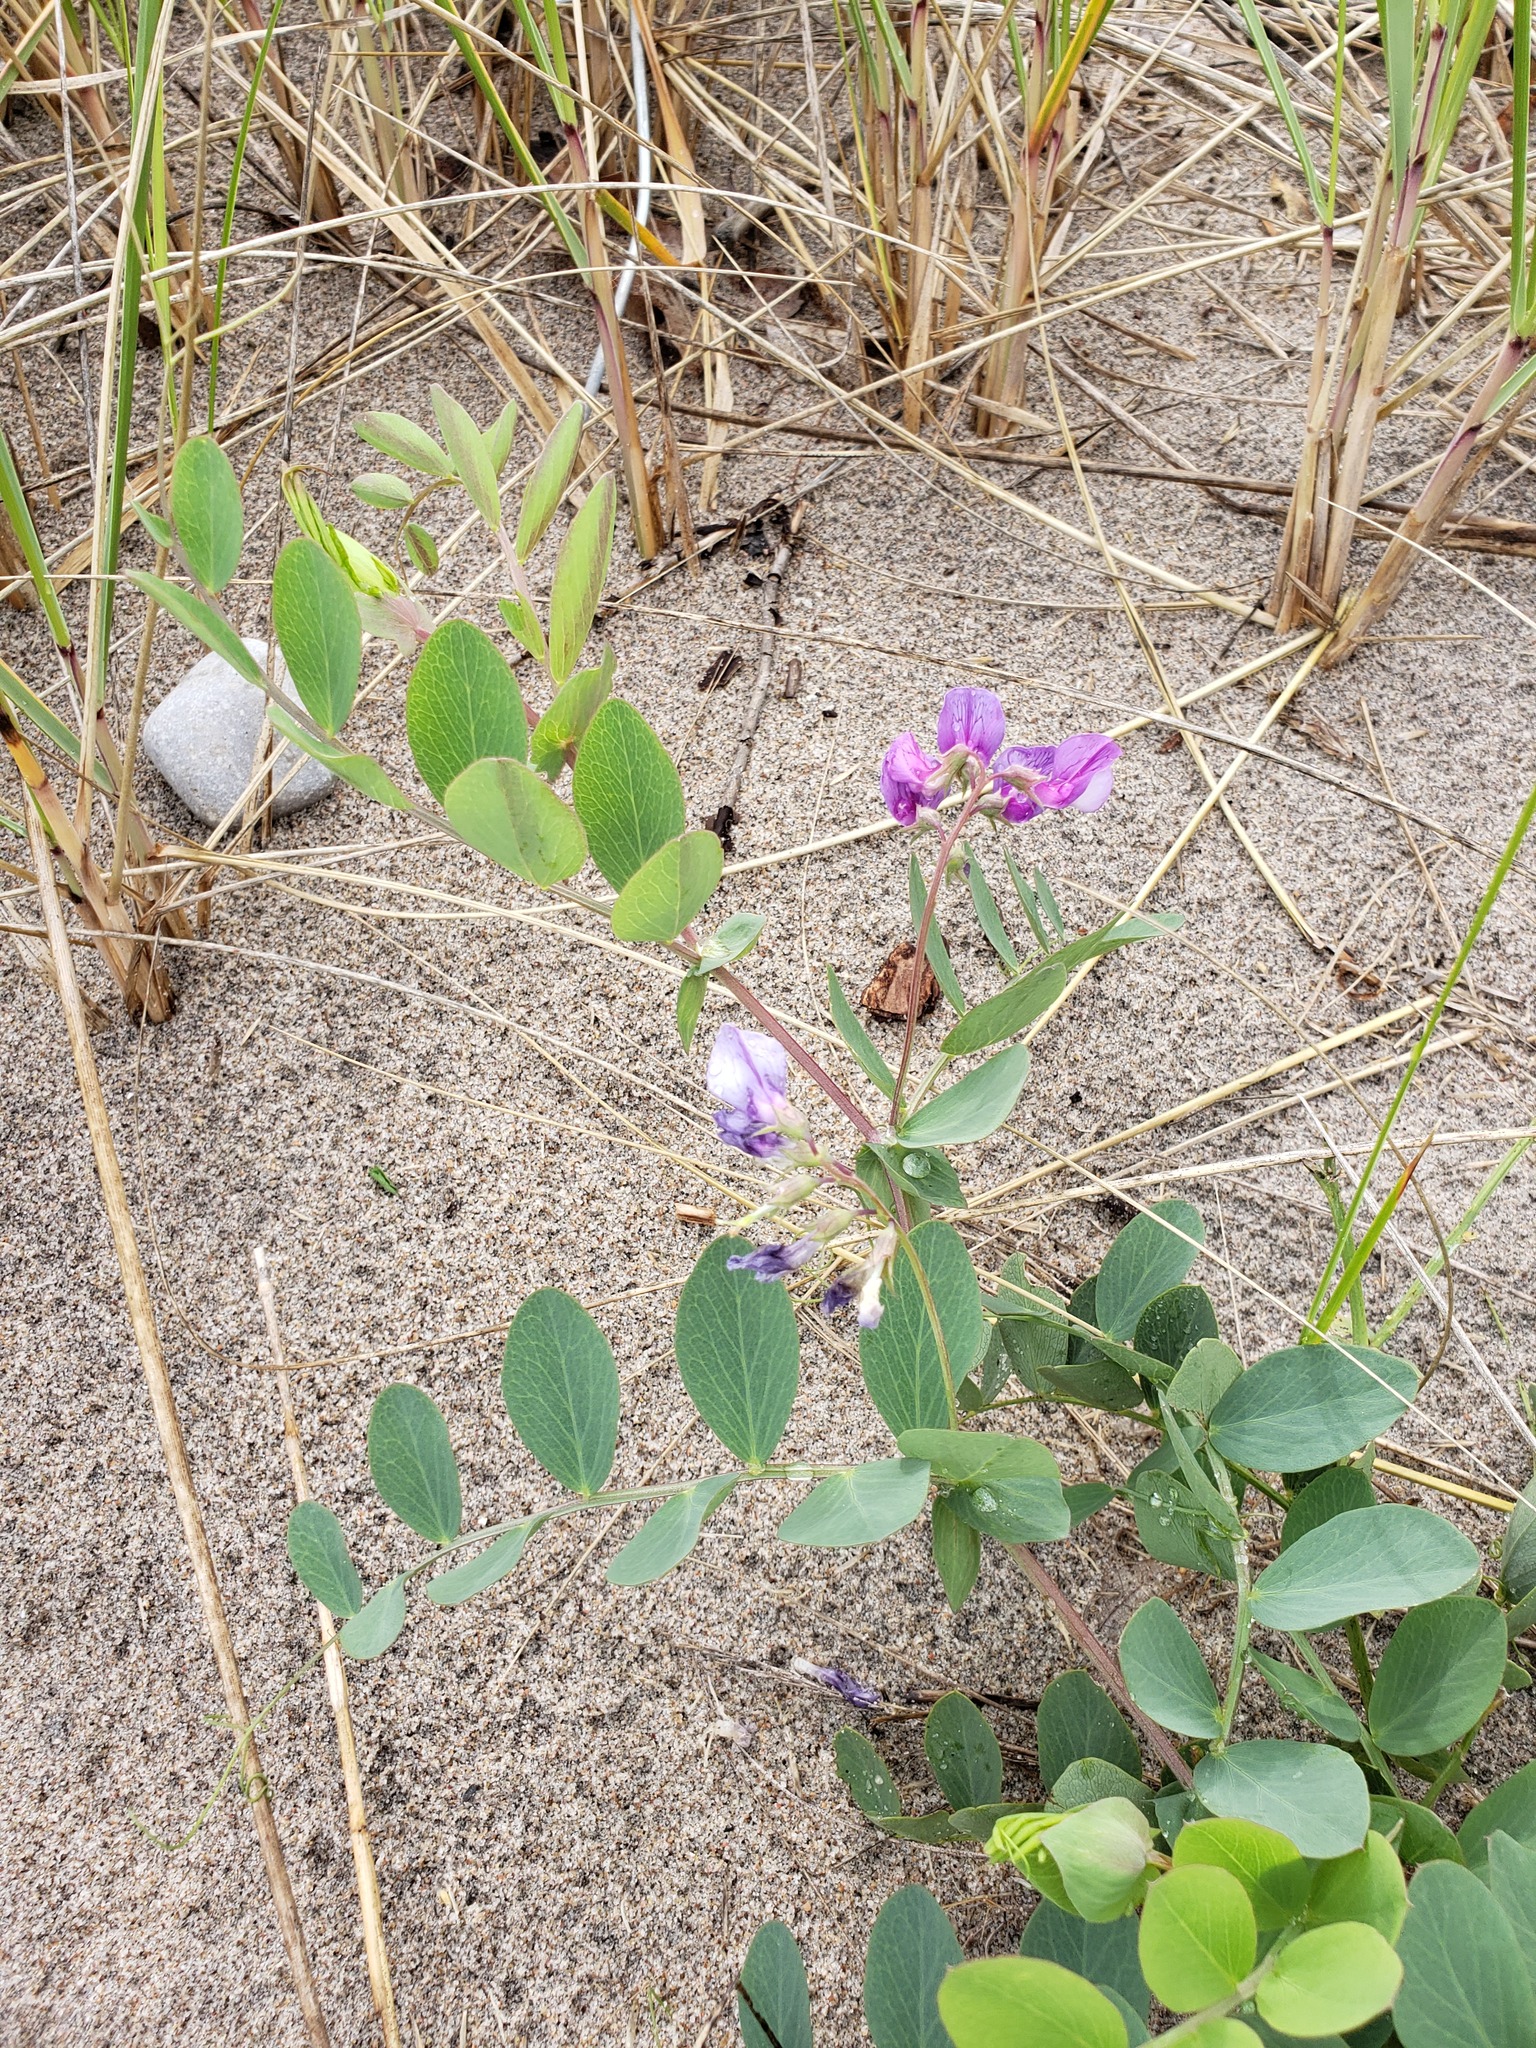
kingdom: Plantae
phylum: Tracheophyta
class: Magnoliopsida
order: Fabales
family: Fabaceae
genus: Lathyrus
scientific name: Lathyrus japonicus
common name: Sea pea
